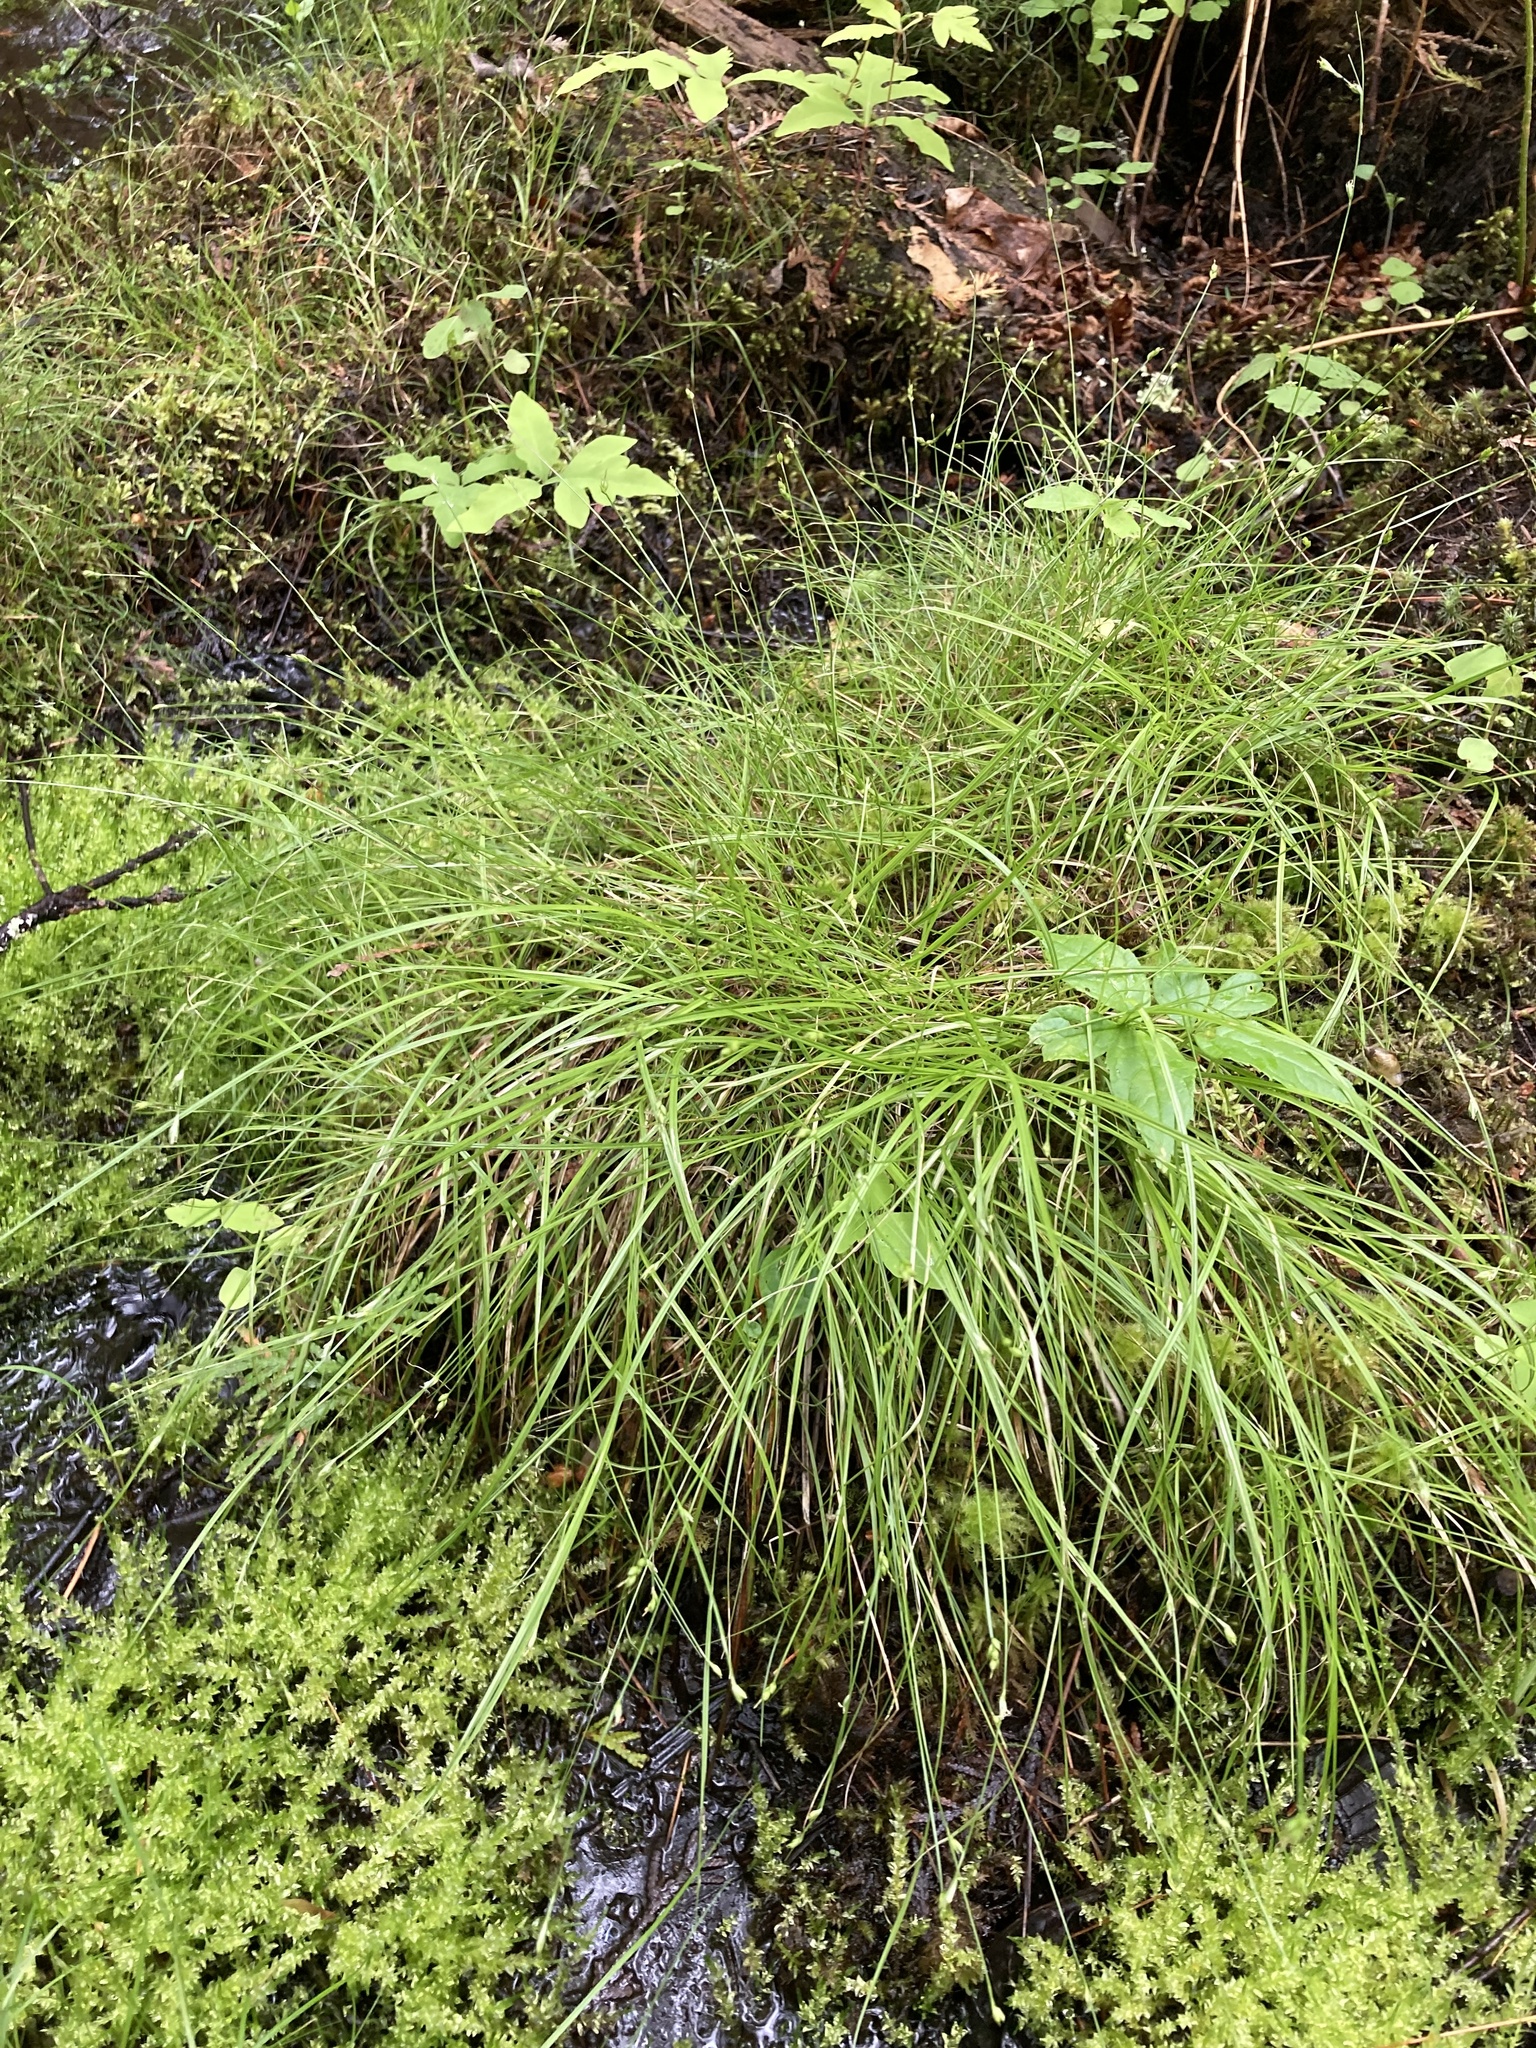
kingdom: Plantae
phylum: Tracheophyta
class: Liliopsida
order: Poales
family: Cyperaceae
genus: Carex
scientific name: Carex trisperma
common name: Three-seeded sedge
